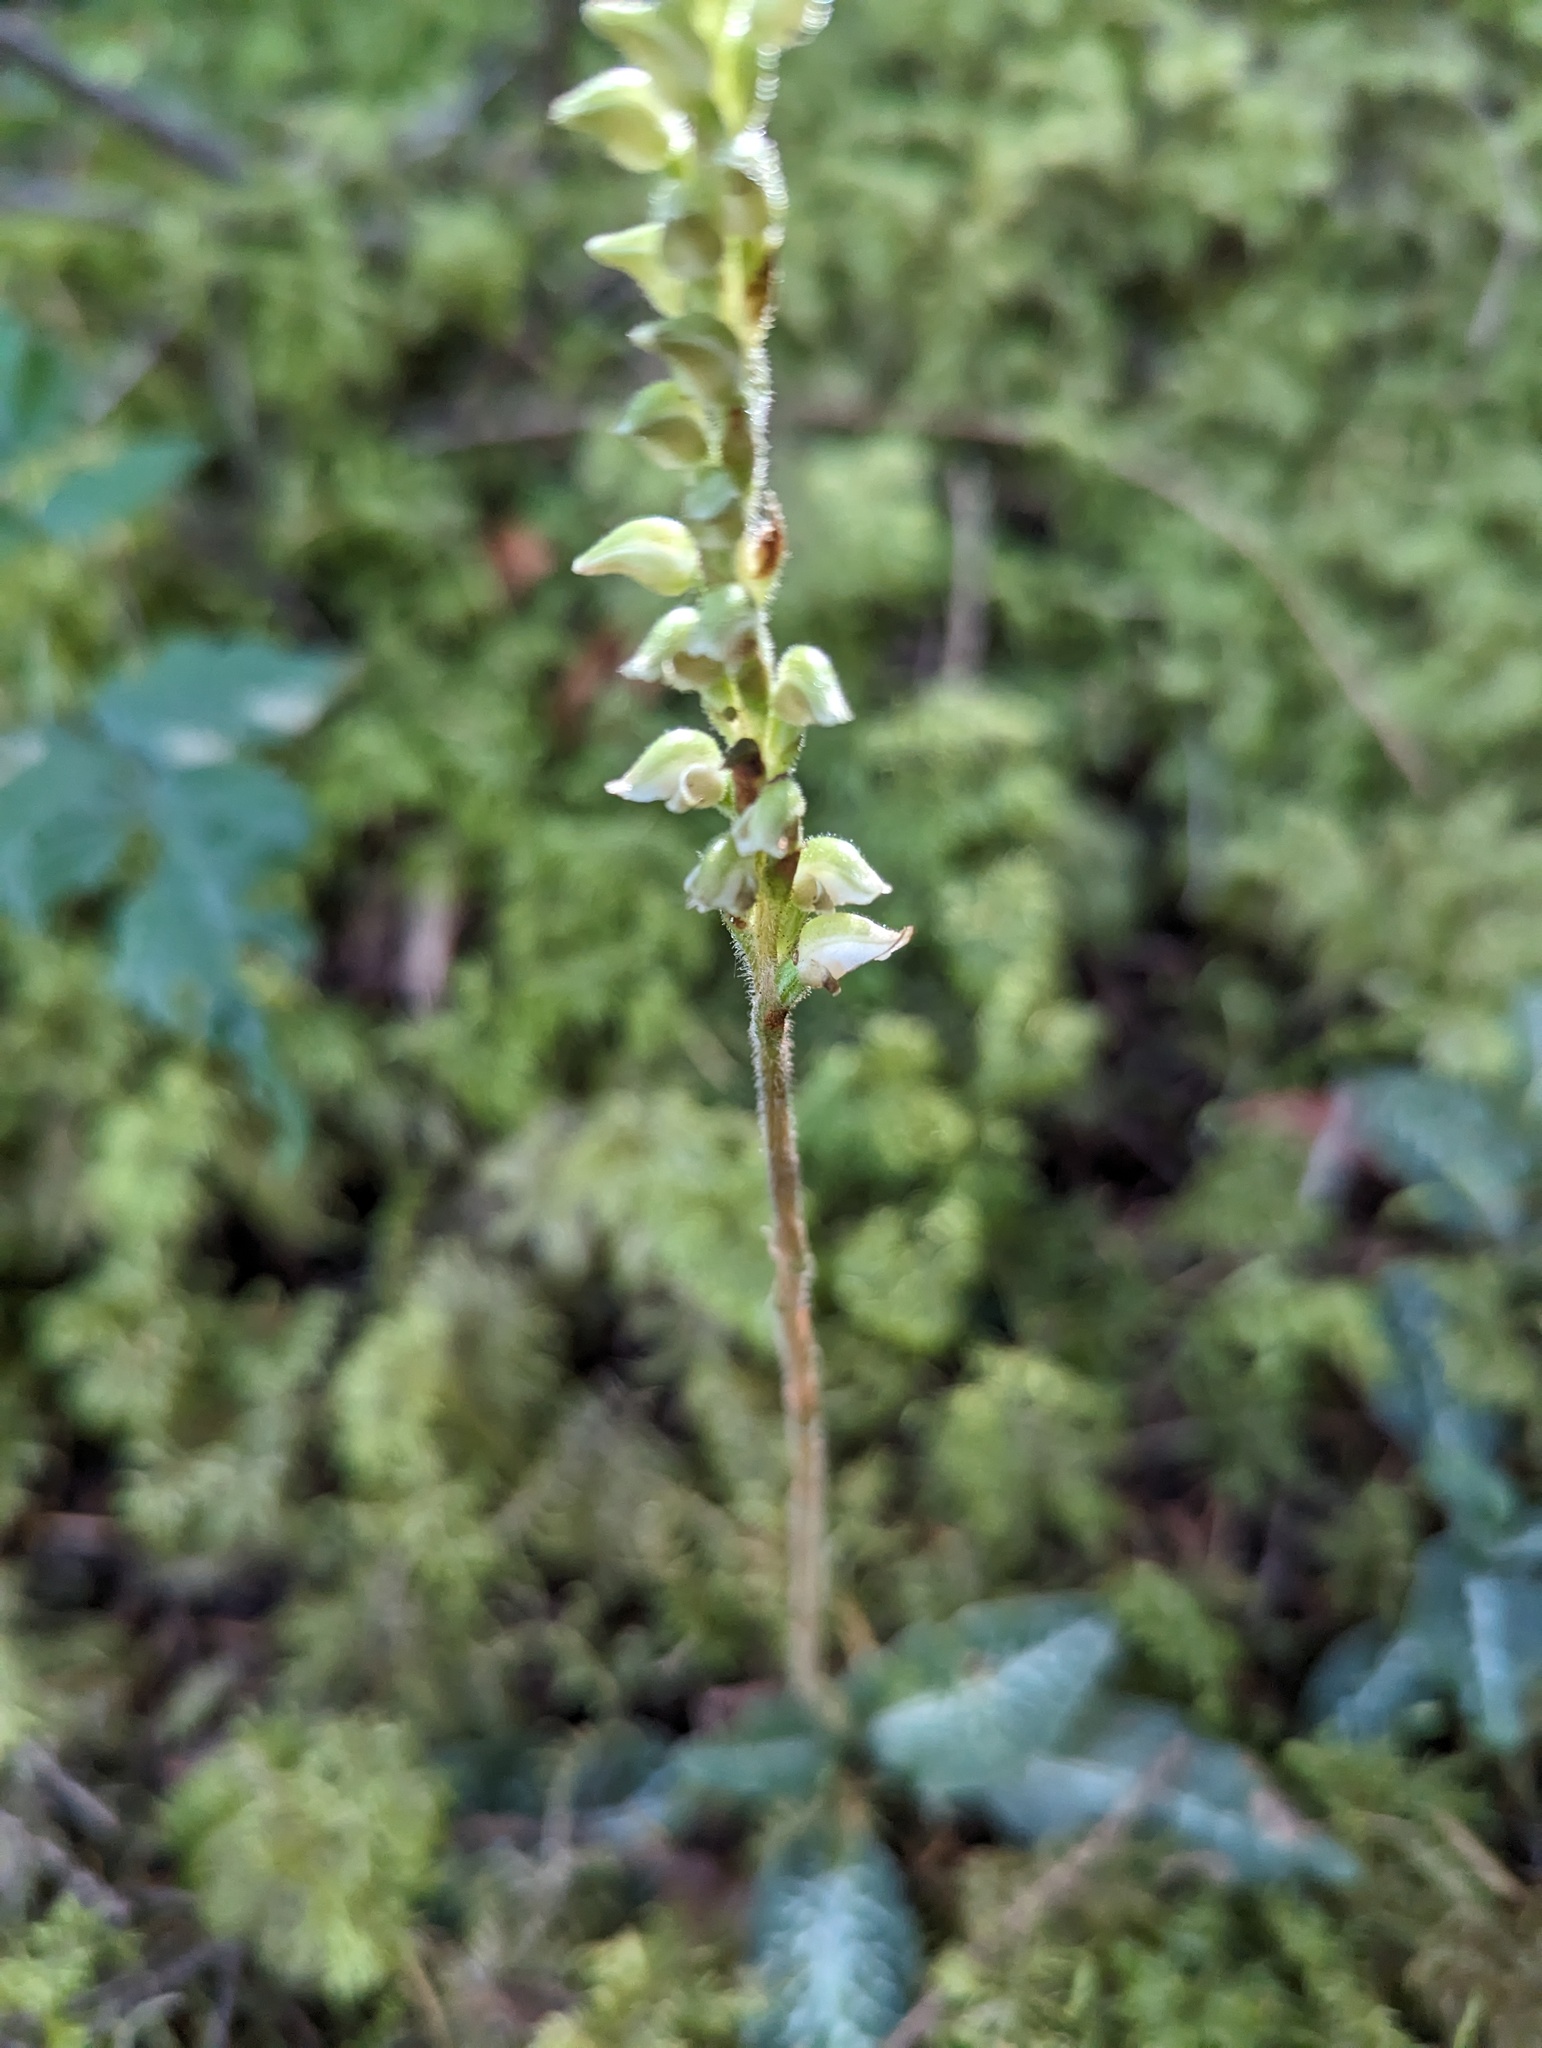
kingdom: Plantae
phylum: Tracheophyta
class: Liliopsida
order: Asparagales
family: Orchidaceae
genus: Goodyera
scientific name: Goodyera oblongifolia
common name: Giant rattlesnake-plantain
